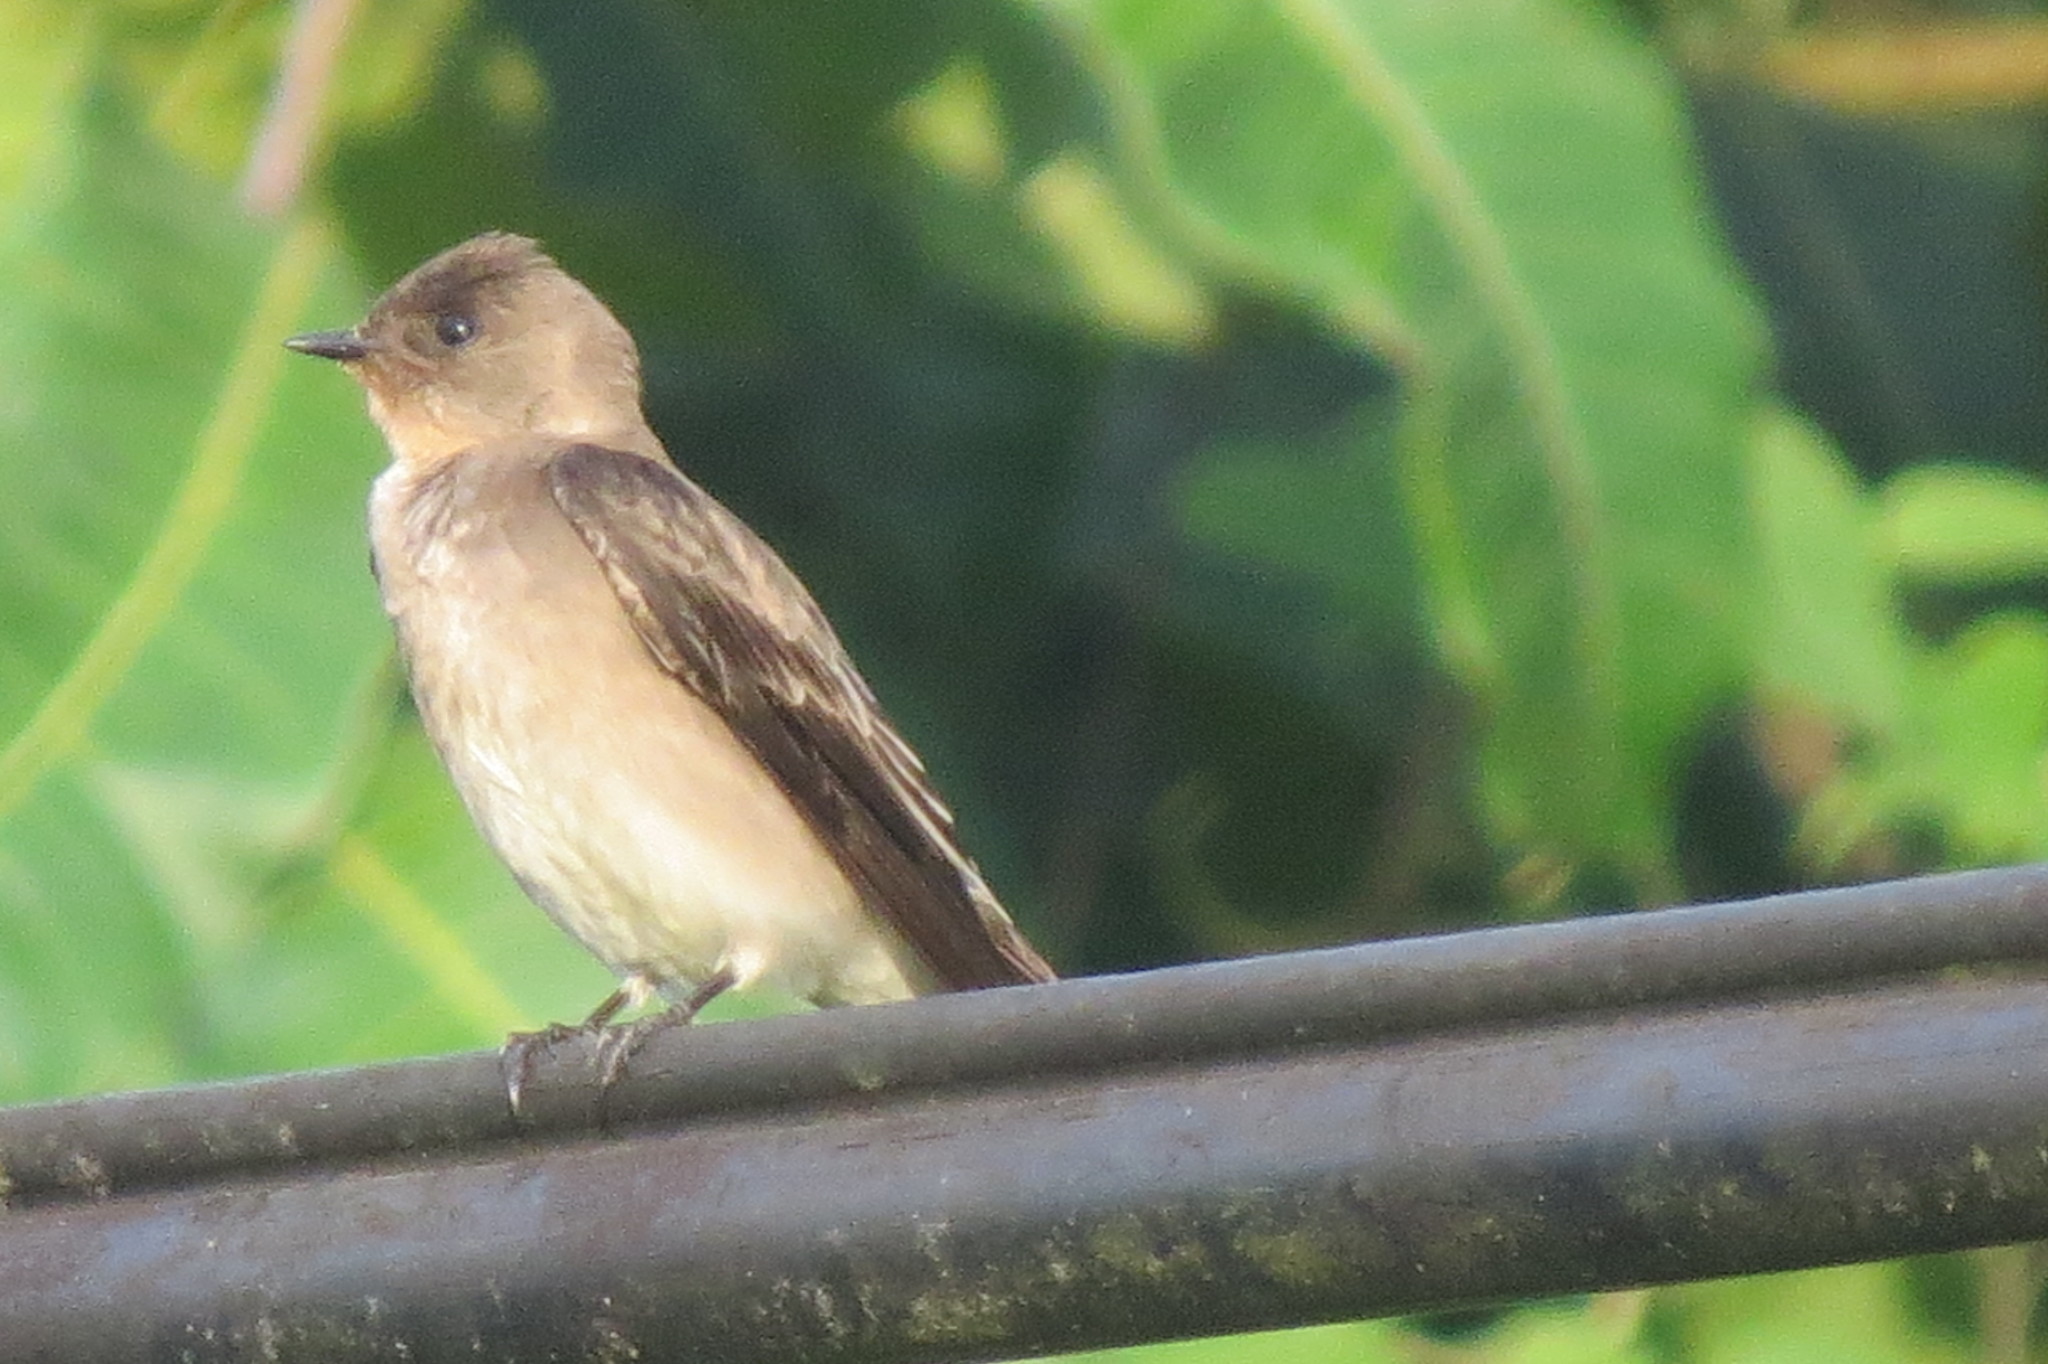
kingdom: Animalia
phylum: Chordata
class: Aves
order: Passeriformes
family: Hirundinidae
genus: Stelgidopteryx
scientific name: Stelgidopteryx ruficollis
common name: Southern rough-winged swallow
